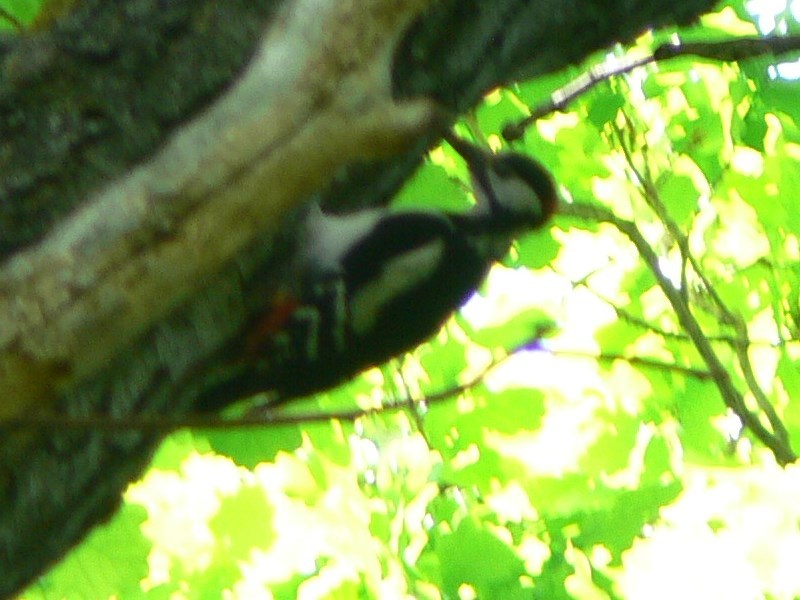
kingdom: Animalia
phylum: Chordata
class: Aves
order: Piciformes
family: Picidae
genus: Dendrocopos
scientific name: Dendrocopos major
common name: Great spotted woodpecker
